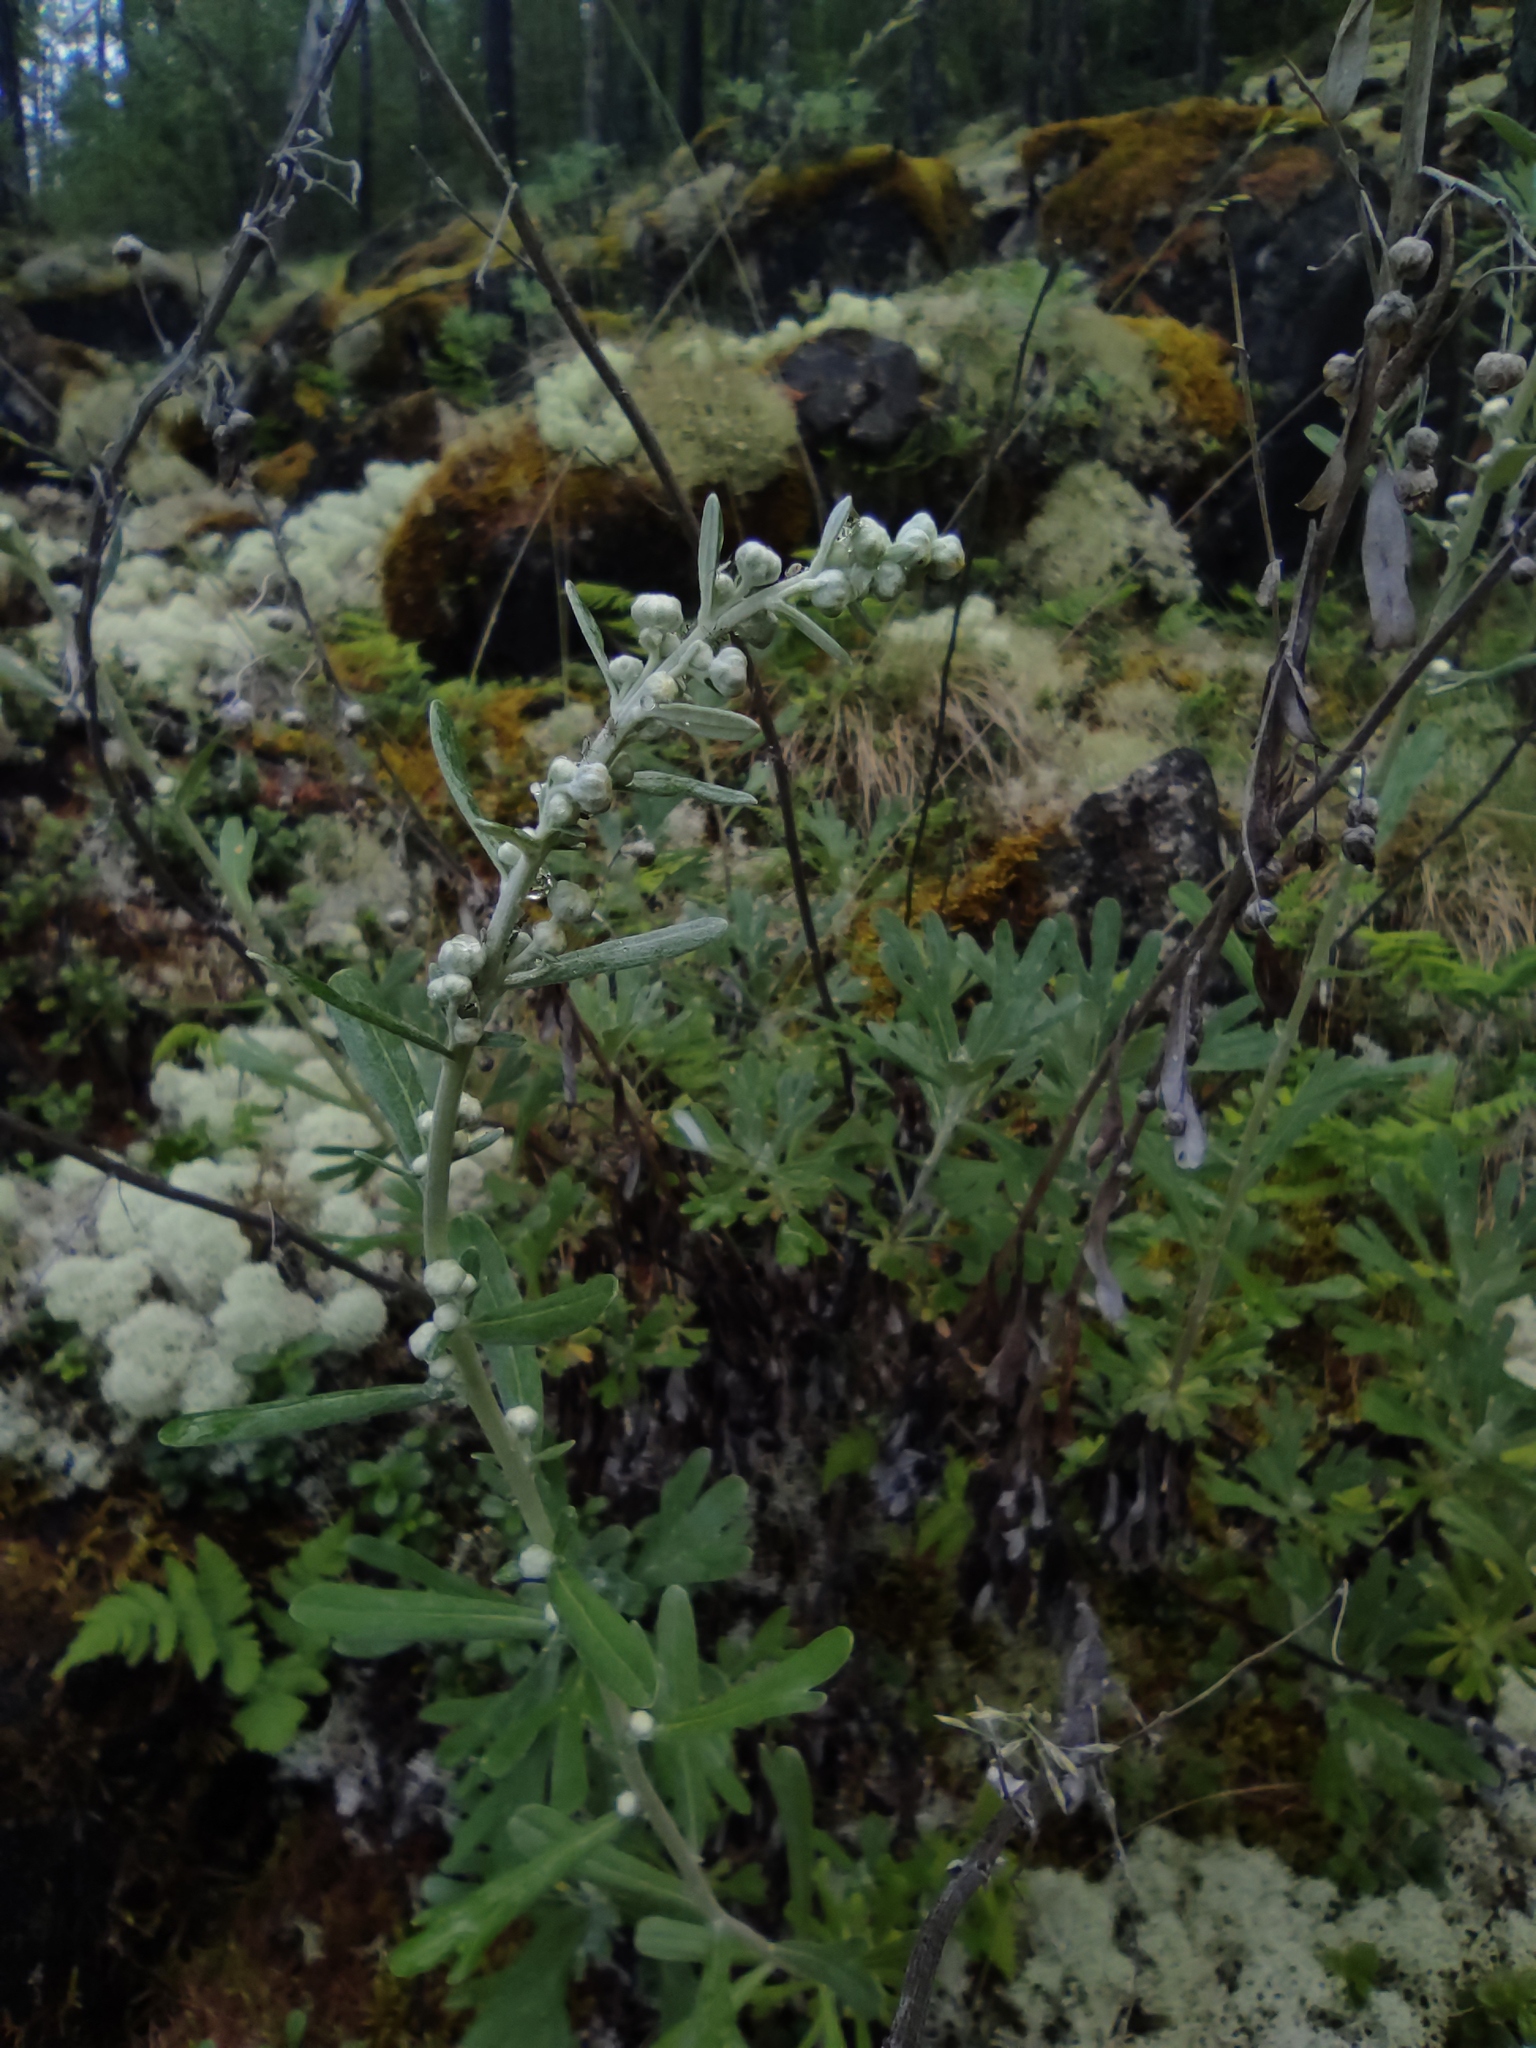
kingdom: Plantae
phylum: Tracheophyta
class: Magnoliopsida
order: Asterales
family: Asteraceae
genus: Artemisia
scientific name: Artemisia lagocephala
